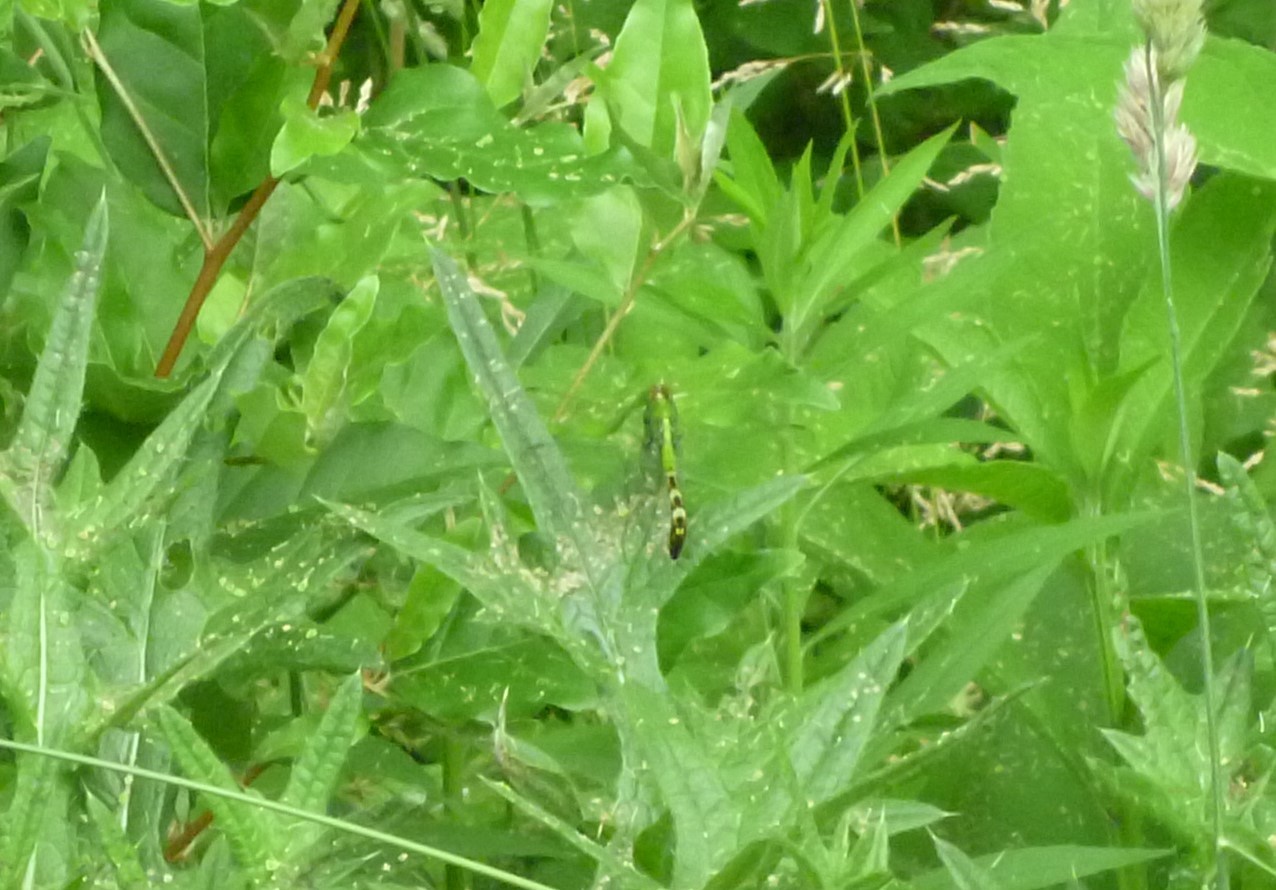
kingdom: Animalia
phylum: Arthropoda
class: Insecta
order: Odonata
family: Libellulidae
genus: Erythemis
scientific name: Erythemis simplicicollis
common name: Eastern pondhawk
